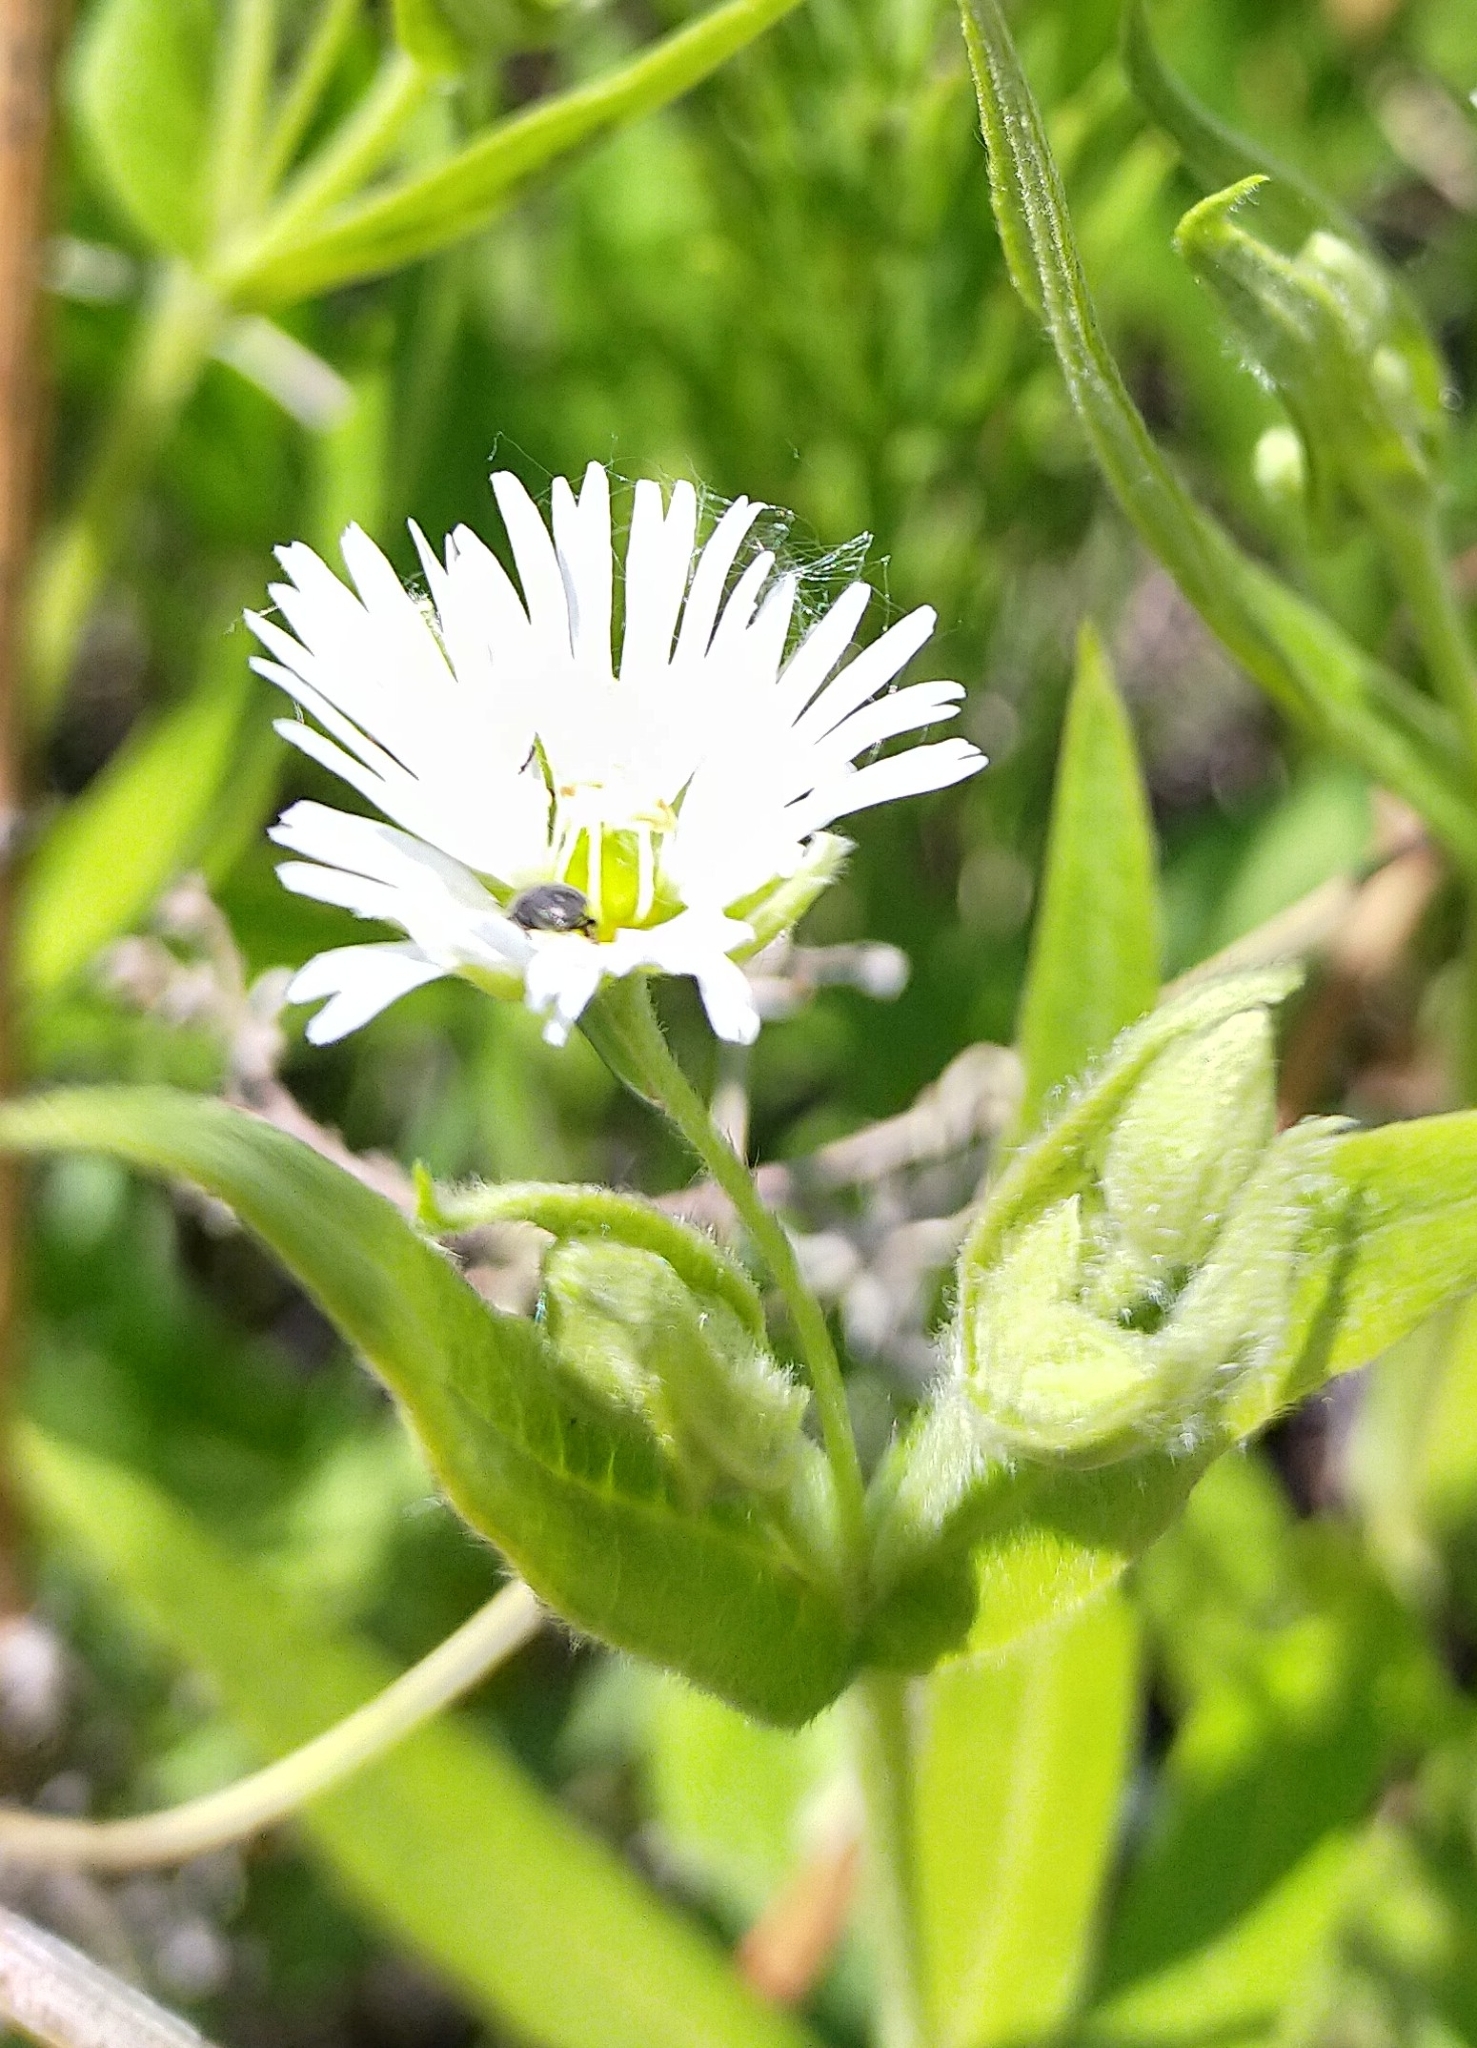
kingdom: Plantae
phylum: Tracheophyta
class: Magnoliopsida
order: Caryophyllales
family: Caryophyllaceae
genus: Stellaria
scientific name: Stellaria radians
